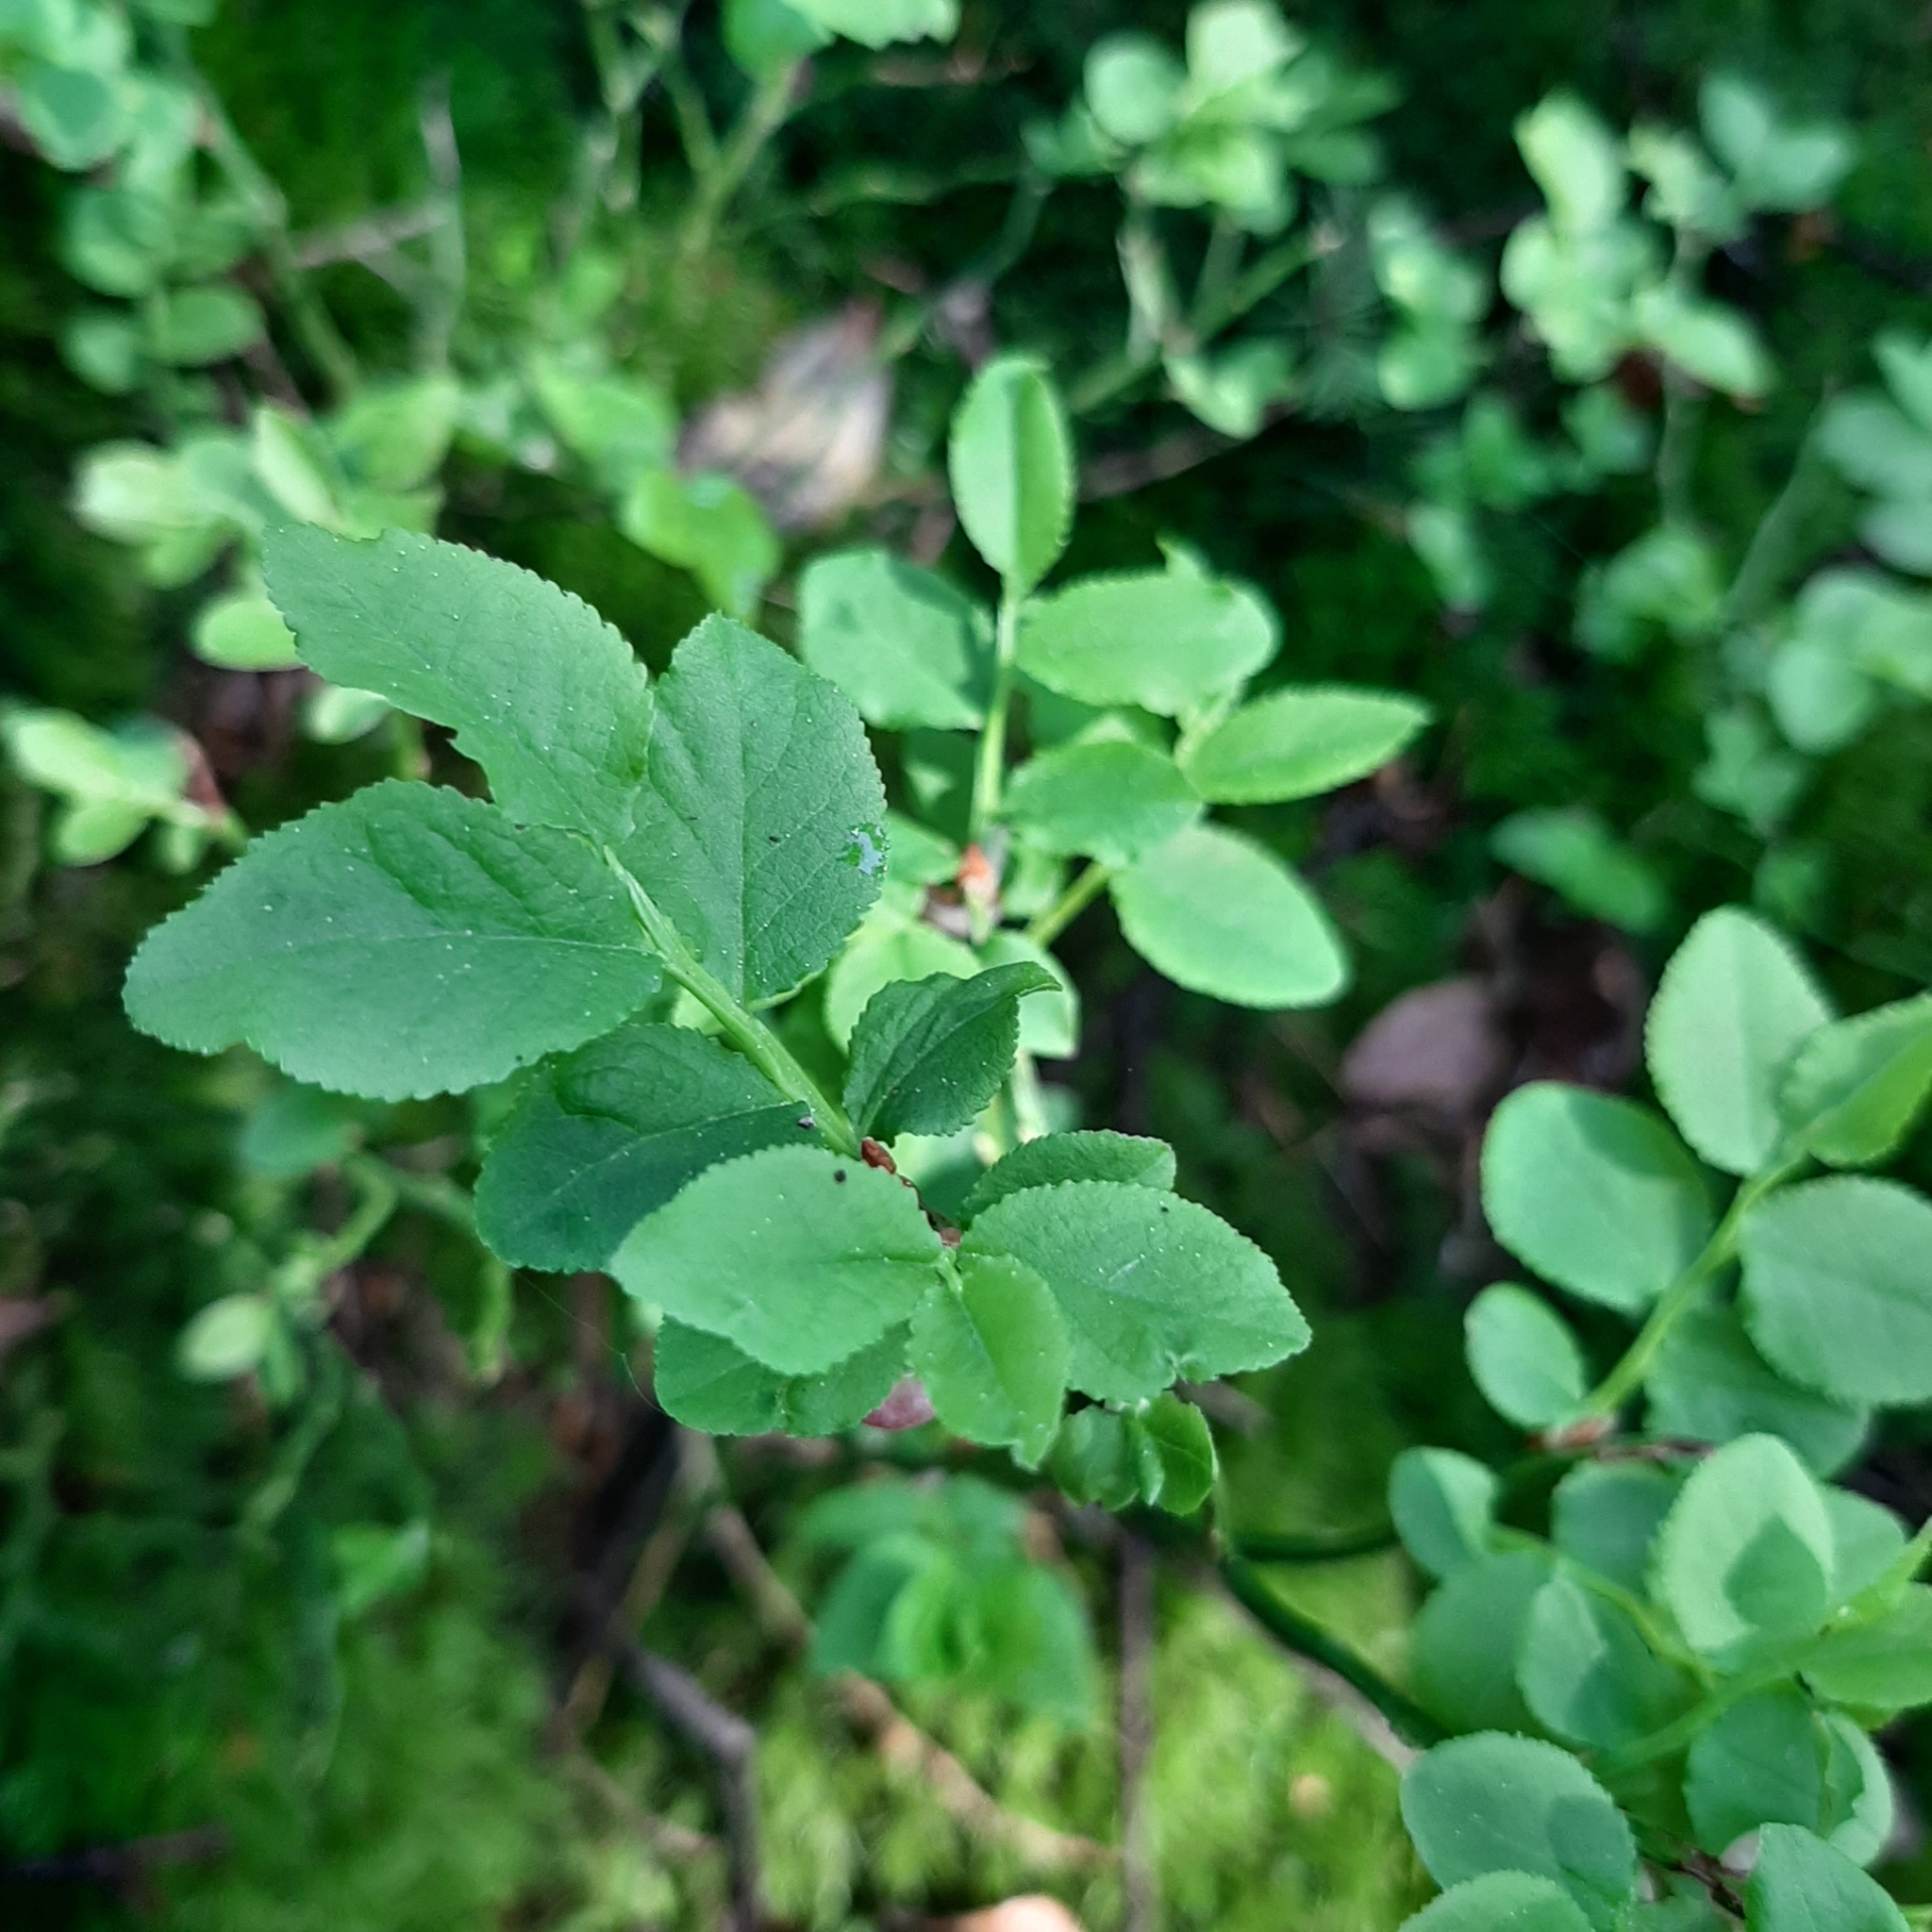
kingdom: Plantae
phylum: Tracheophyta
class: Magnoliopsida
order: Ericales
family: Ericaceae
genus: Vaccinium
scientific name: Vaccinium myrtillus
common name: Bilberry
